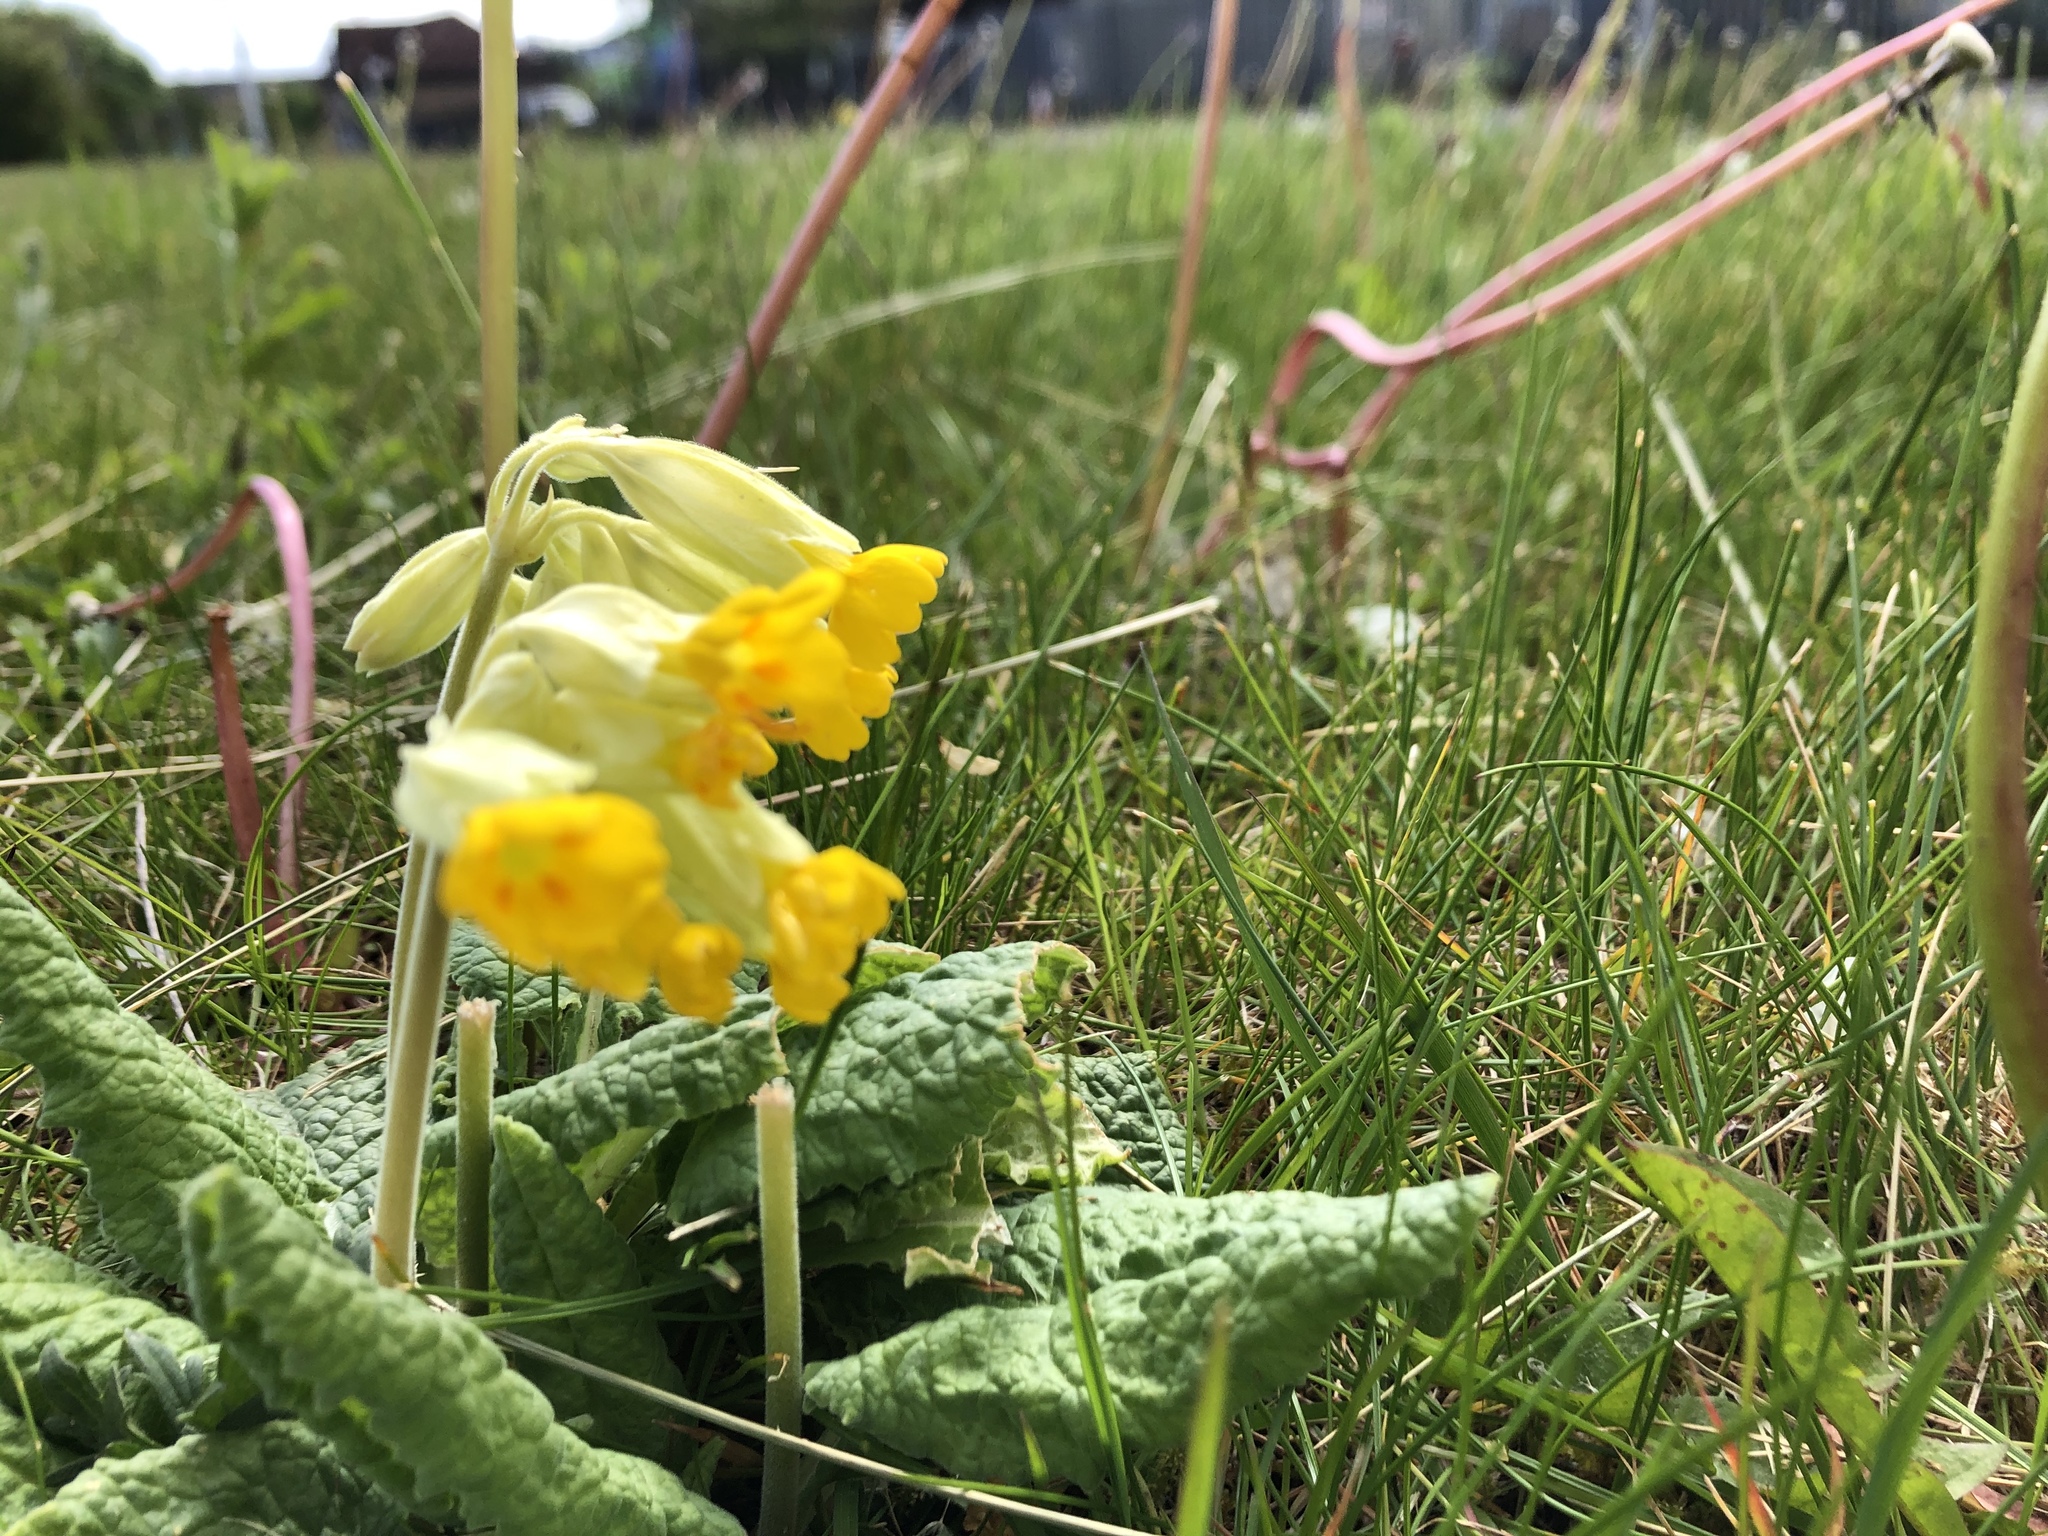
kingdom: Plantae
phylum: Tracheophyta
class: Magnoliopsida
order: Ericales
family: Primulaceae
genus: Primula
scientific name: Primula veris
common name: Cowslip
